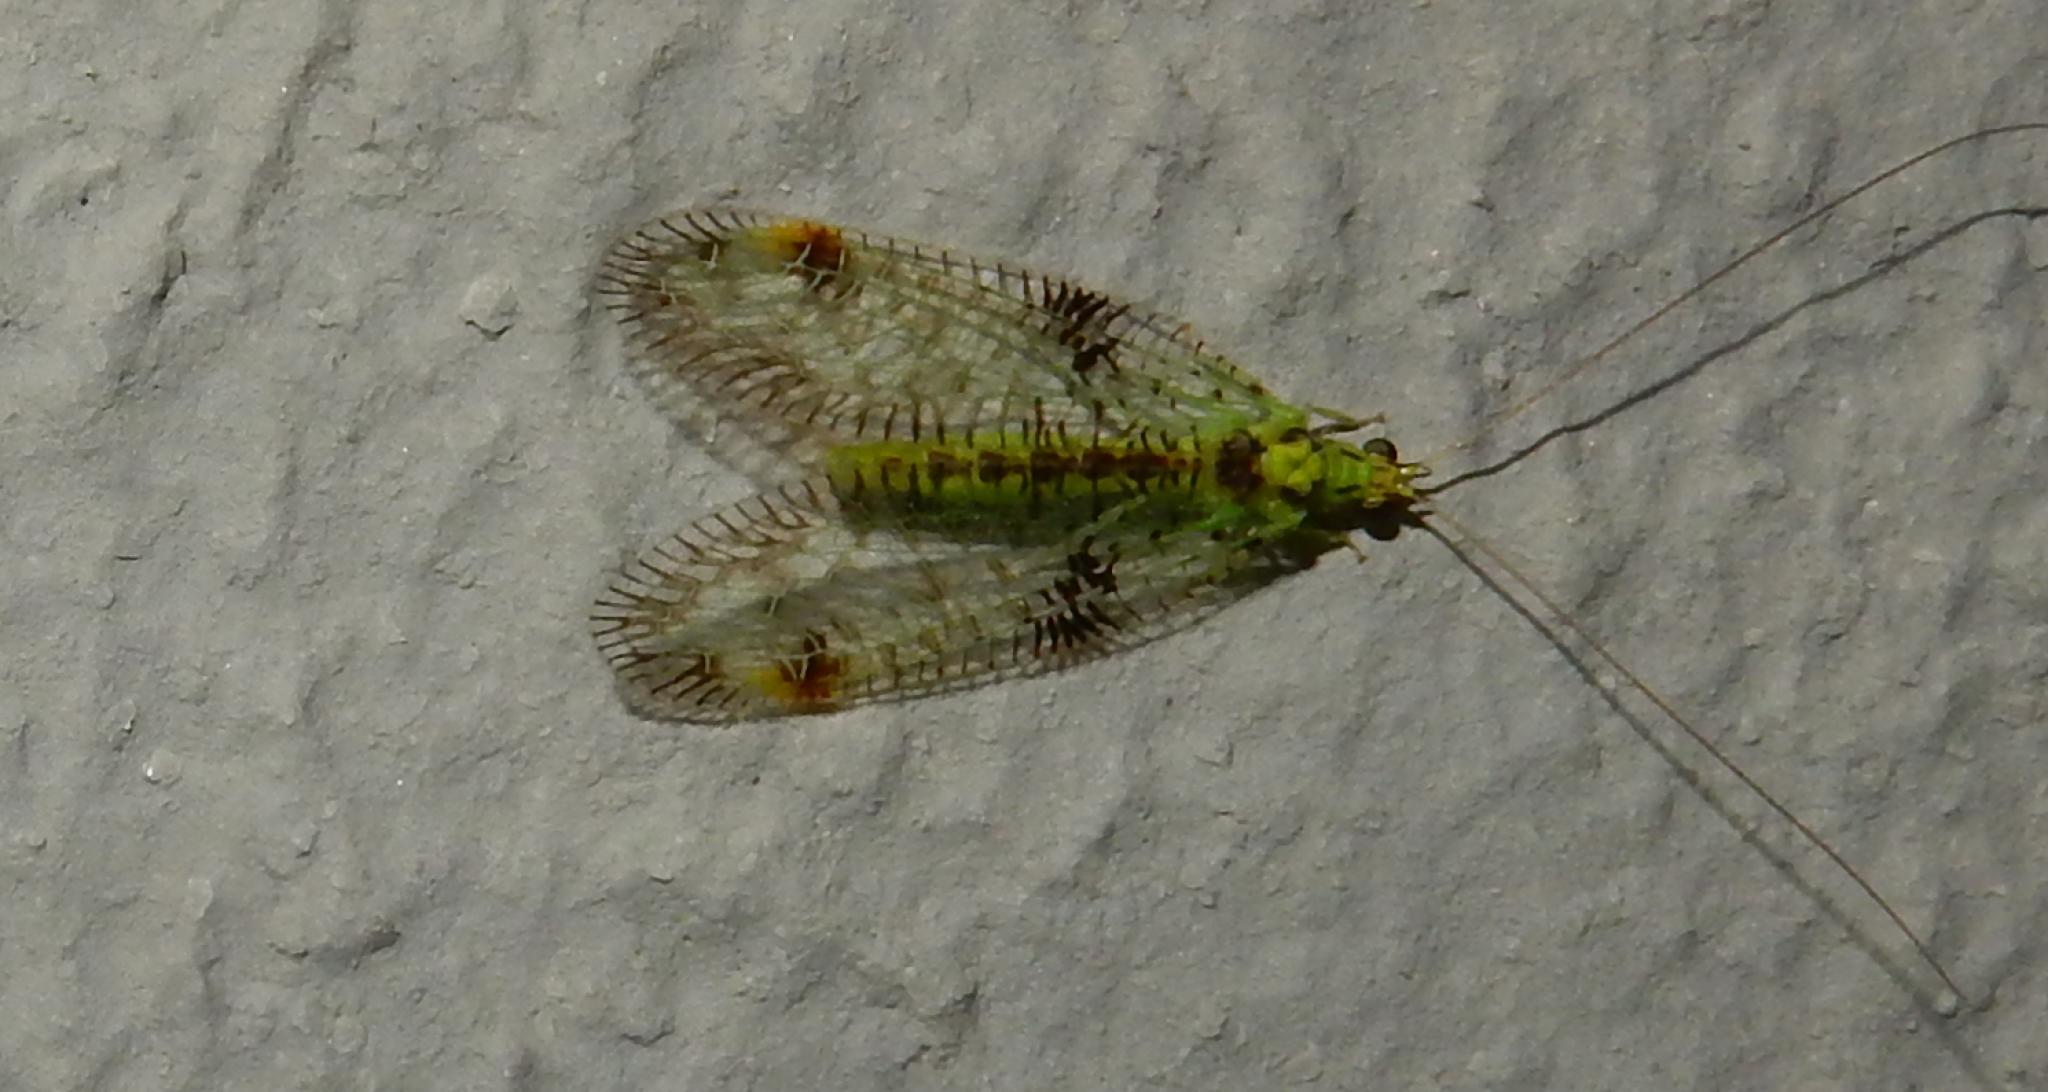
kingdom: Animalia
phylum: Arthropoda
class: Insecta
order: Neuroptera
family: Chrysopidae
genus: Glenochrysa
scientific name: Glenochrysa principissa
